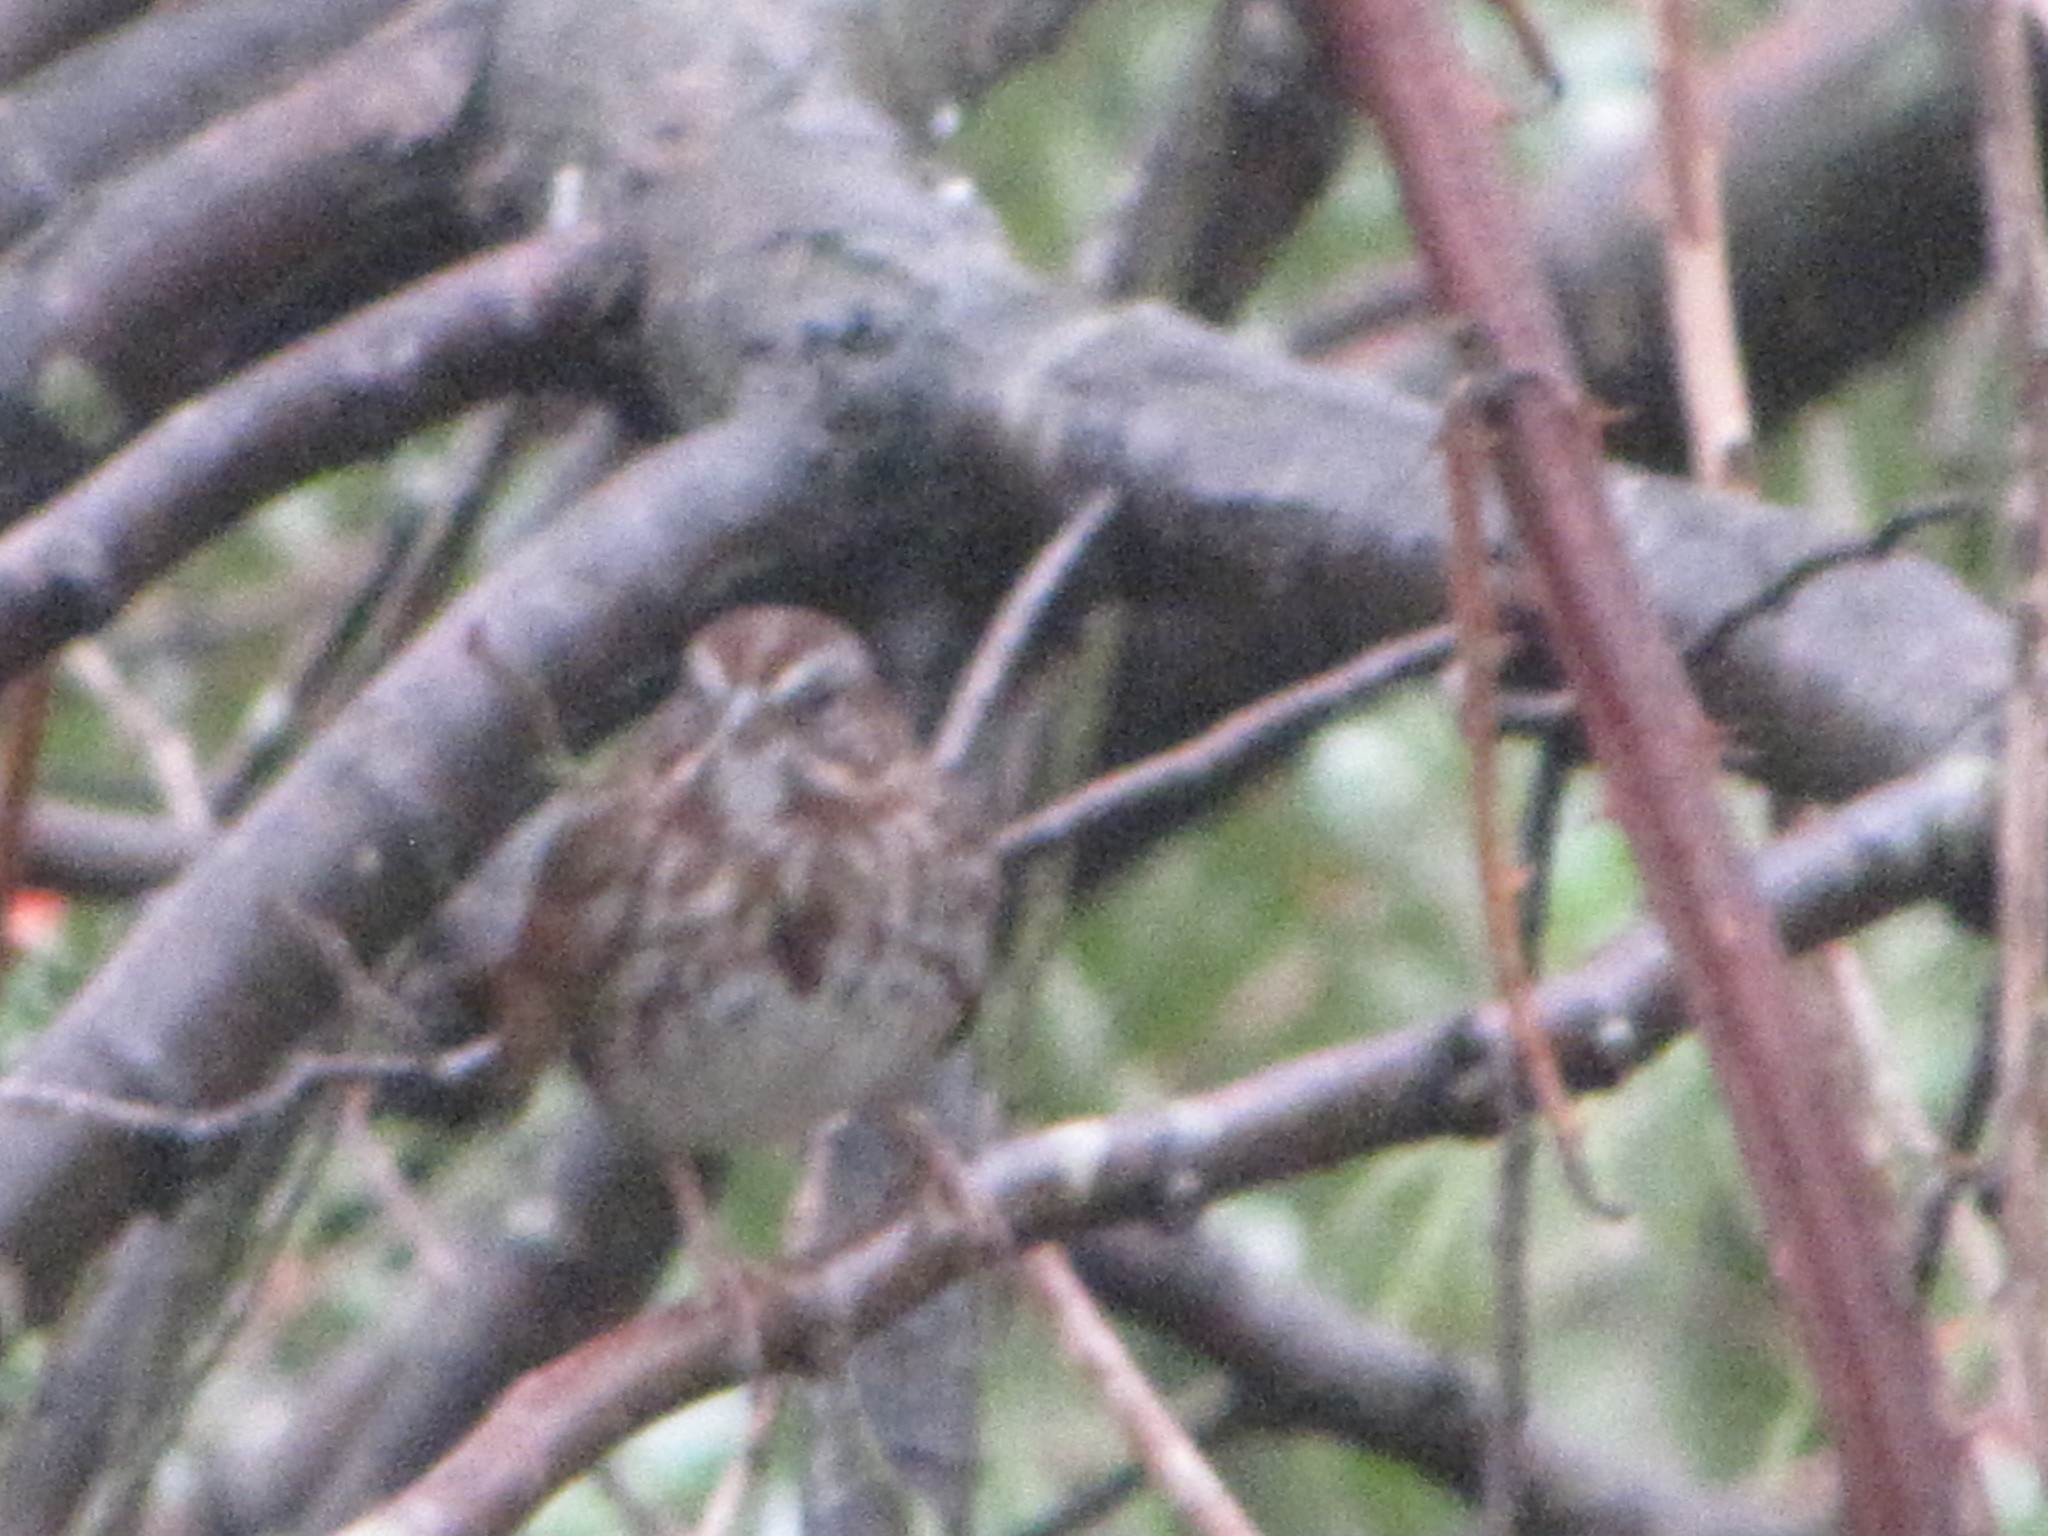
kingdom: Animalia
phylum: Chordata
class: Aves
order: Passeriformes
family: Passerellidae
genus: Melospiza
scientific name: Melospiza melodia
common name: Song sparrow
